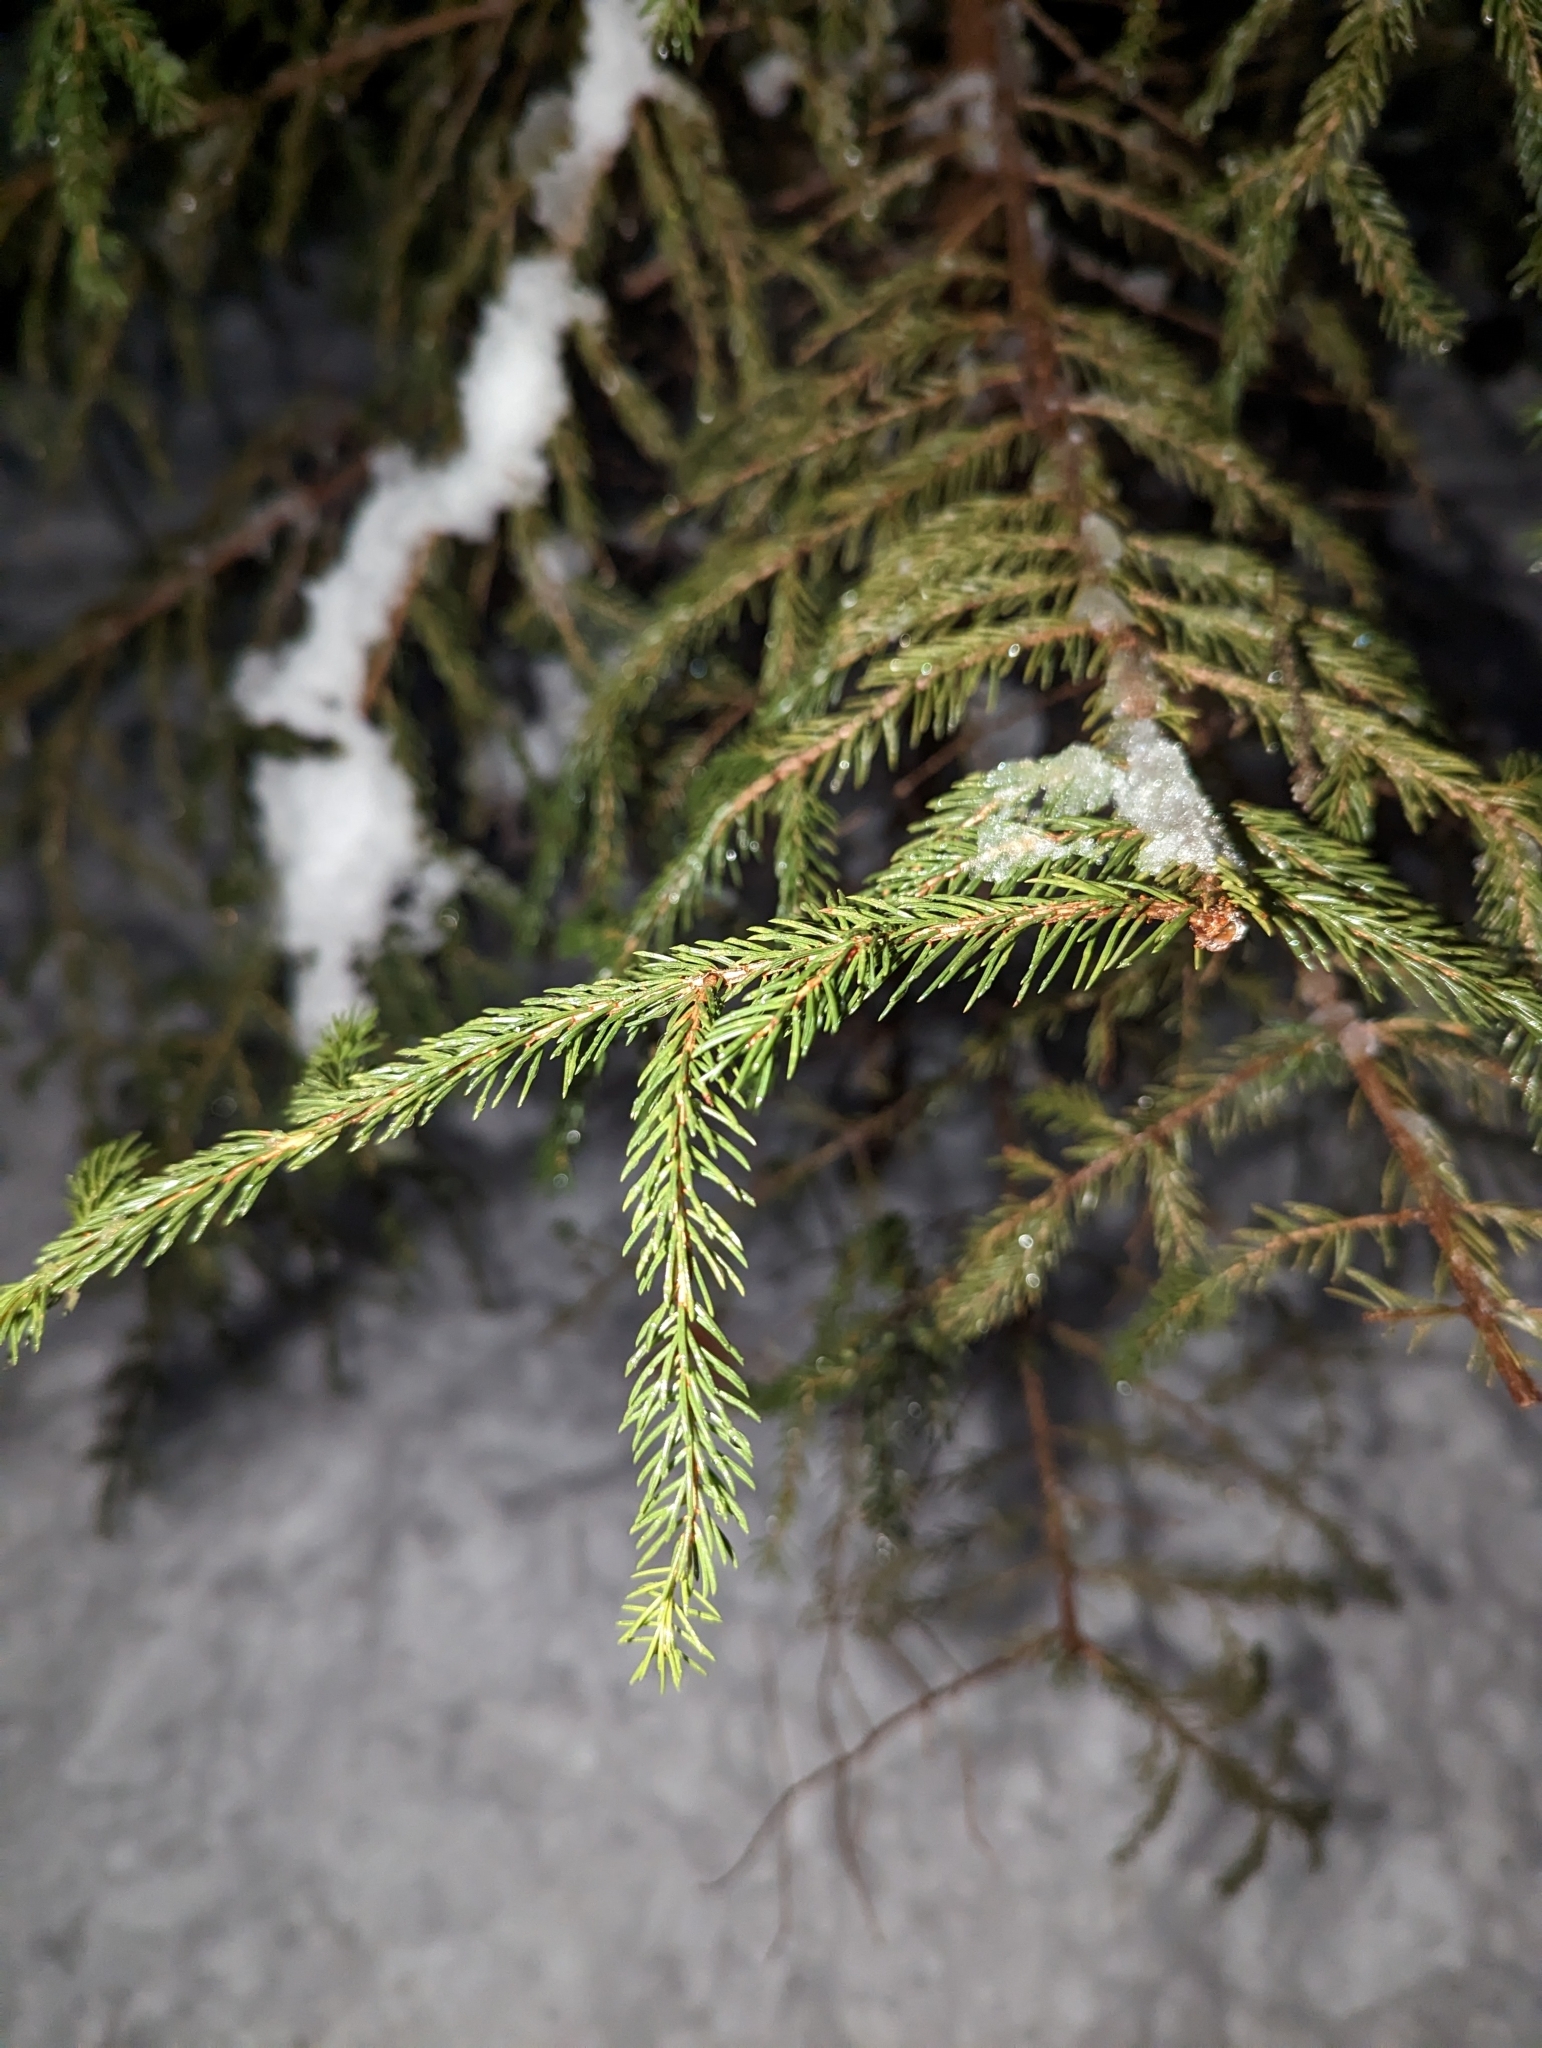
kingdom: Plantae
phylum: Tracheophyta
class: Pinopsida
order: Pinales
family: Pinaceae
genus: Picea
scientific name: Picea rubens
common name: Red spruce
